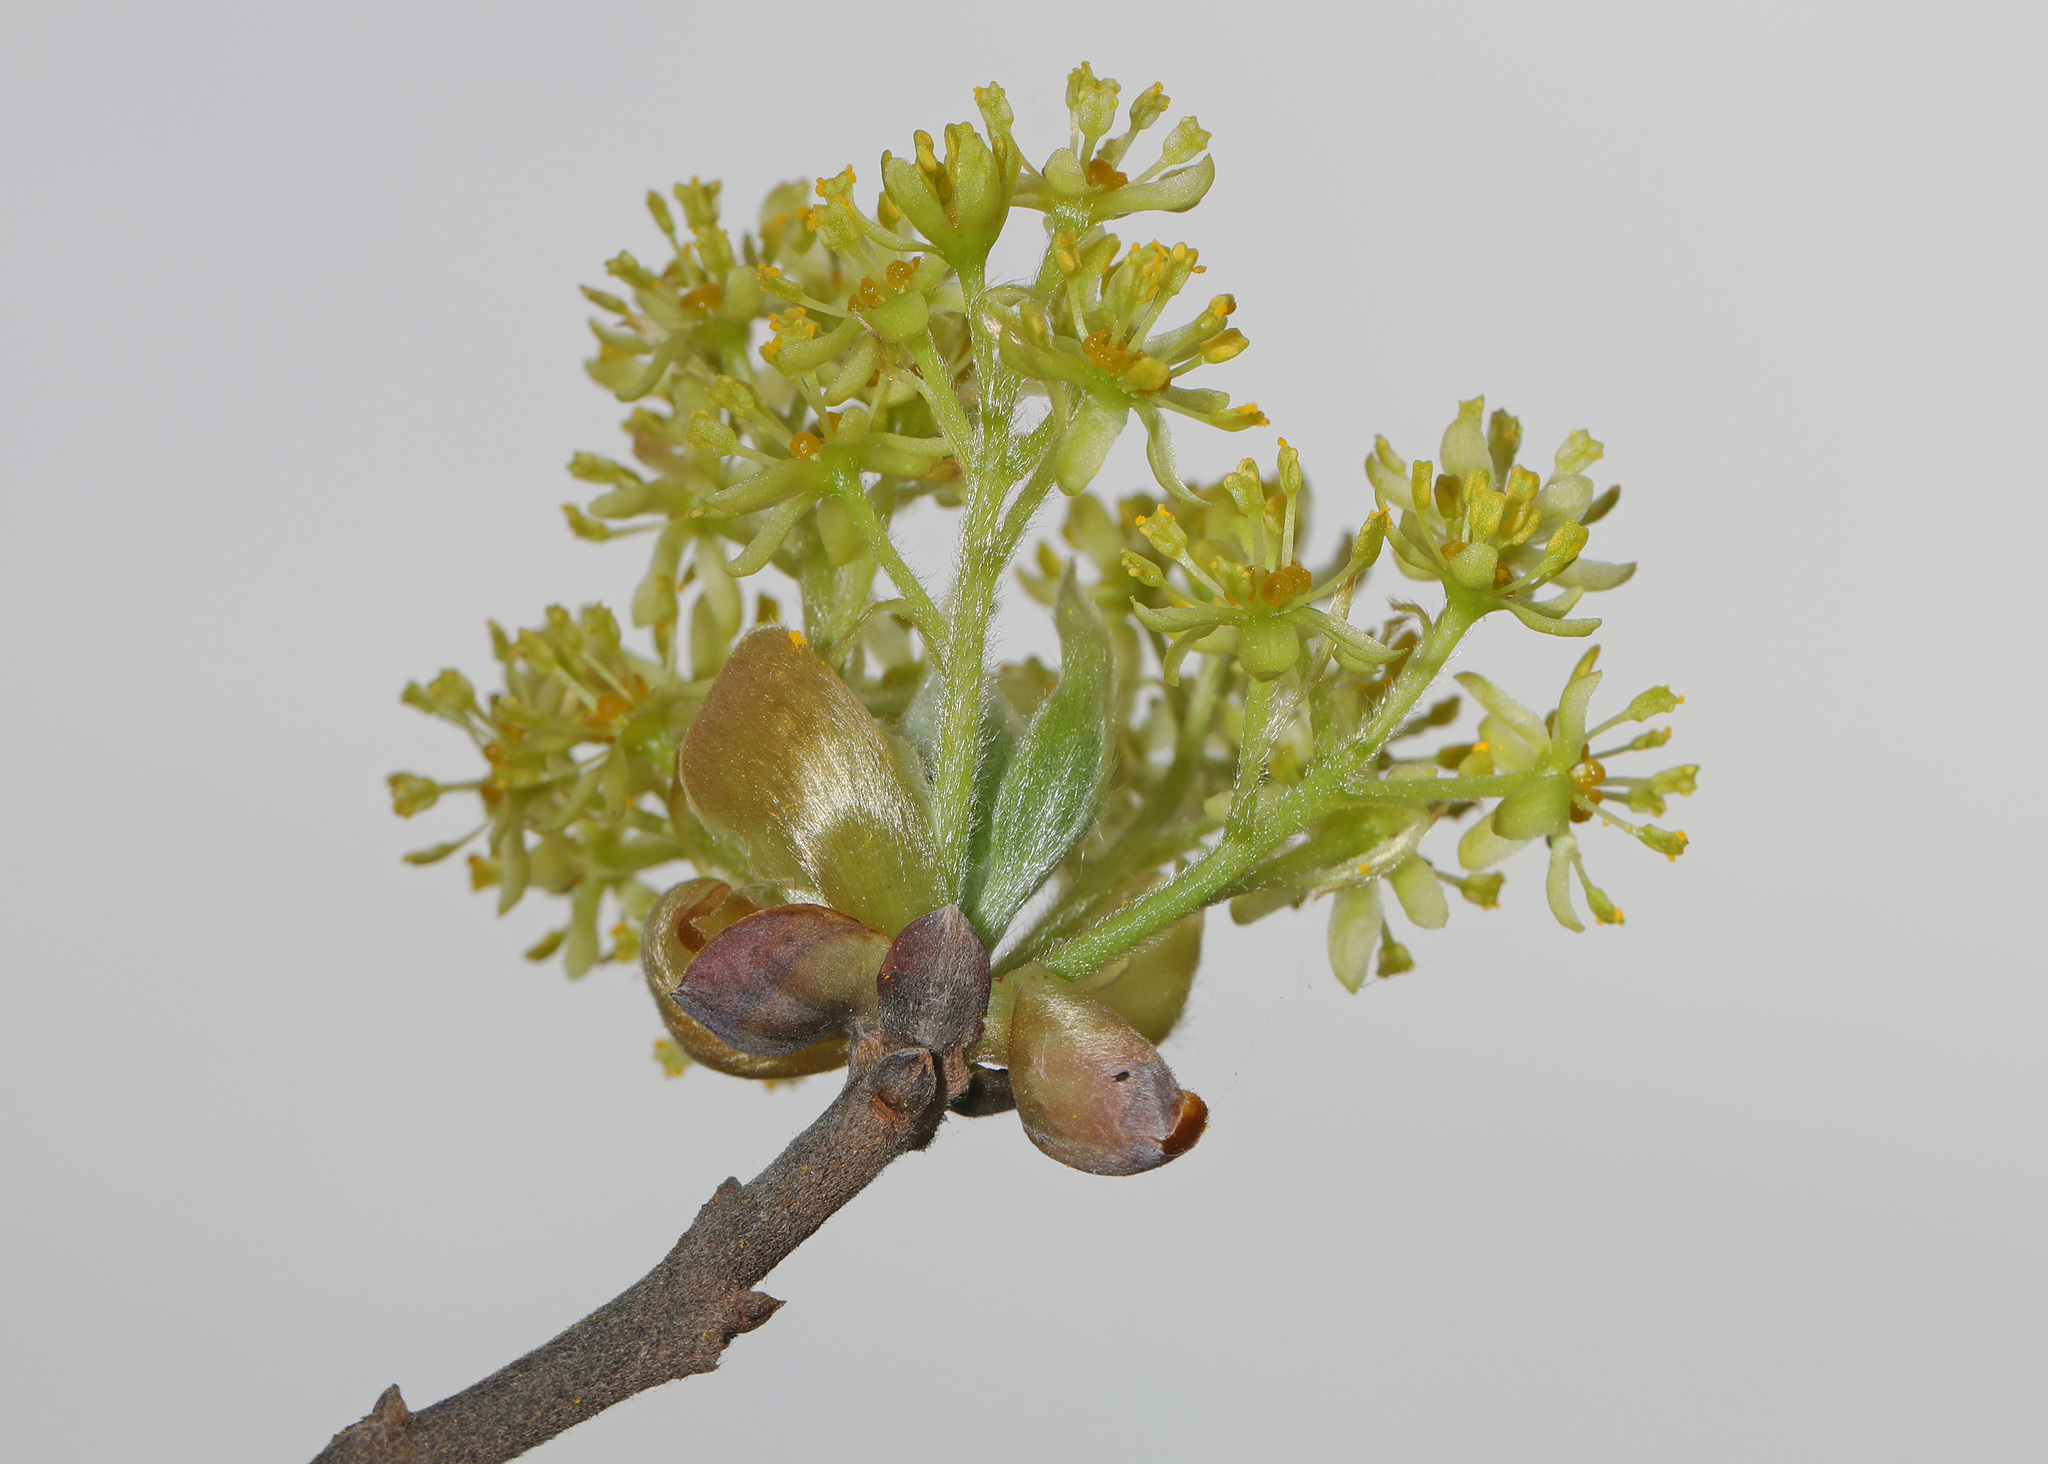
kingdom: Plantae
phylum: Tracheophyta
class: Magnoliopsida
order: Laurales
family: Lauraceae
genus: Sassafras
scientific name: Sassafras albidum
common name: Sassafras
